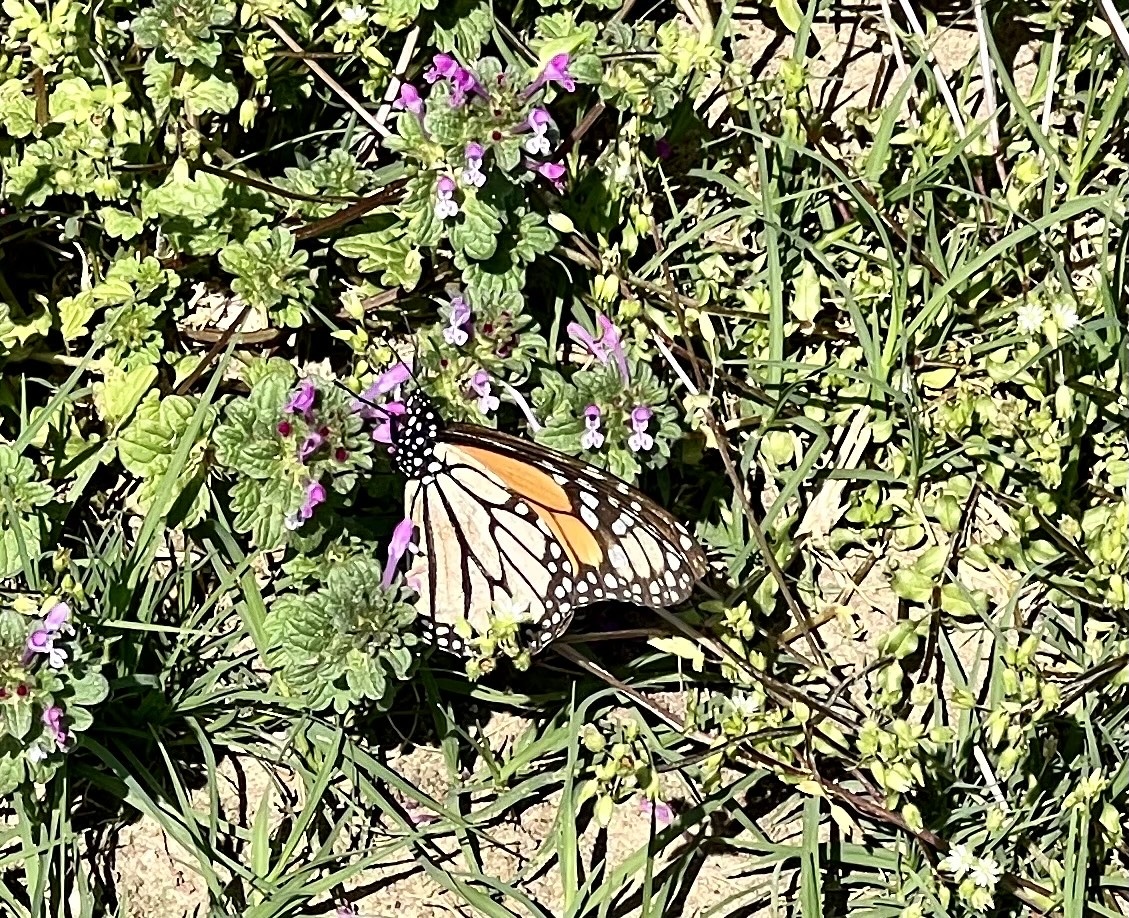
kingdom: Animalia
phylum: Arthropoda
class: Insecta
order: Lepidoptera
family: Nymphalidae
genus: Danaus
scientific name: Danaus plexippus
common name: Monarch
